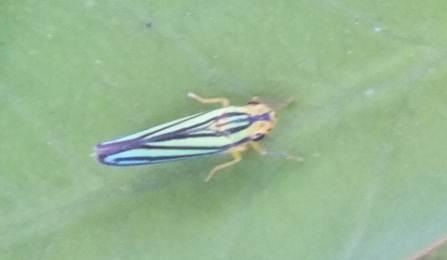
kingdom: Animalia
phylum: Arthropoda
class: Insecta
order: Hemiptera
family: Cicadellidae
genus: Tettigoniella
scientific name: Tettigoniella cosmopolita
